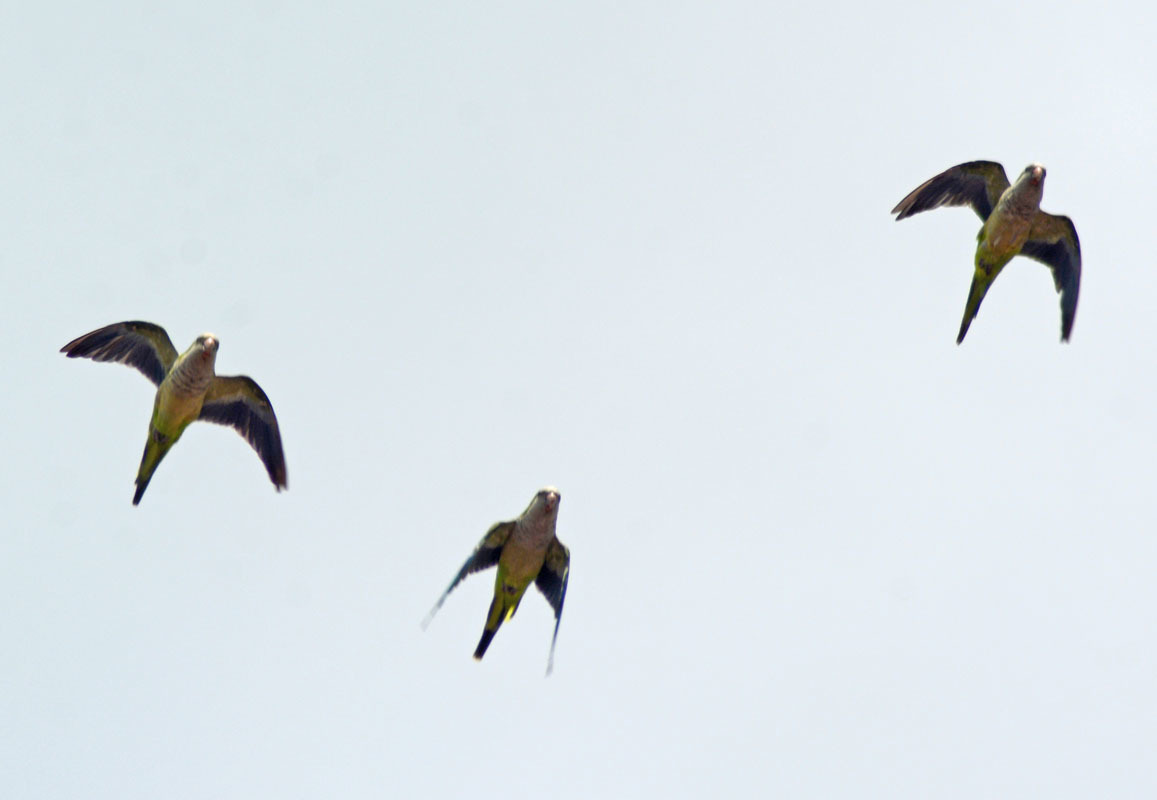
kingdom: Animalia
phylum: Chordata
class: Aves
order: Psittaciformes
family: Psittacidae
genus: Myiopsitta
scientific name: Myiopsitta monachus
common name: Monk parakeet
